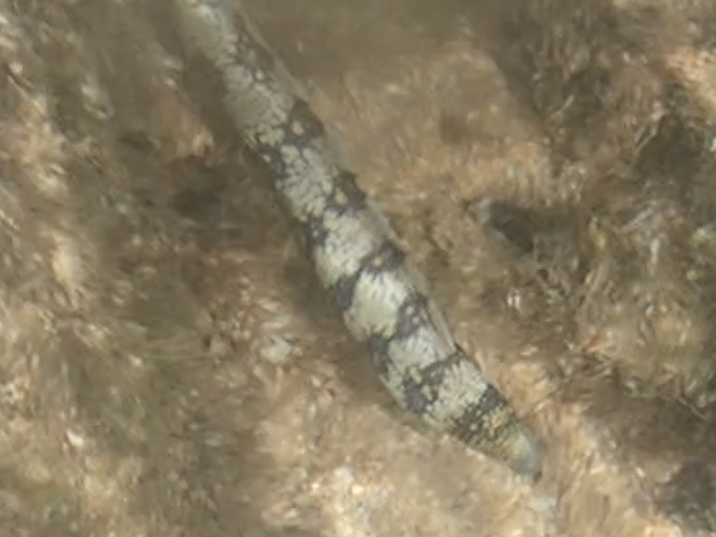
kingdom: Animalia
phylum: Chordata
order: Anguilliformes
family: Muraenidae
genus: Echidna
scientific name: Echidna nebulosa
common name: Snowflake moray
